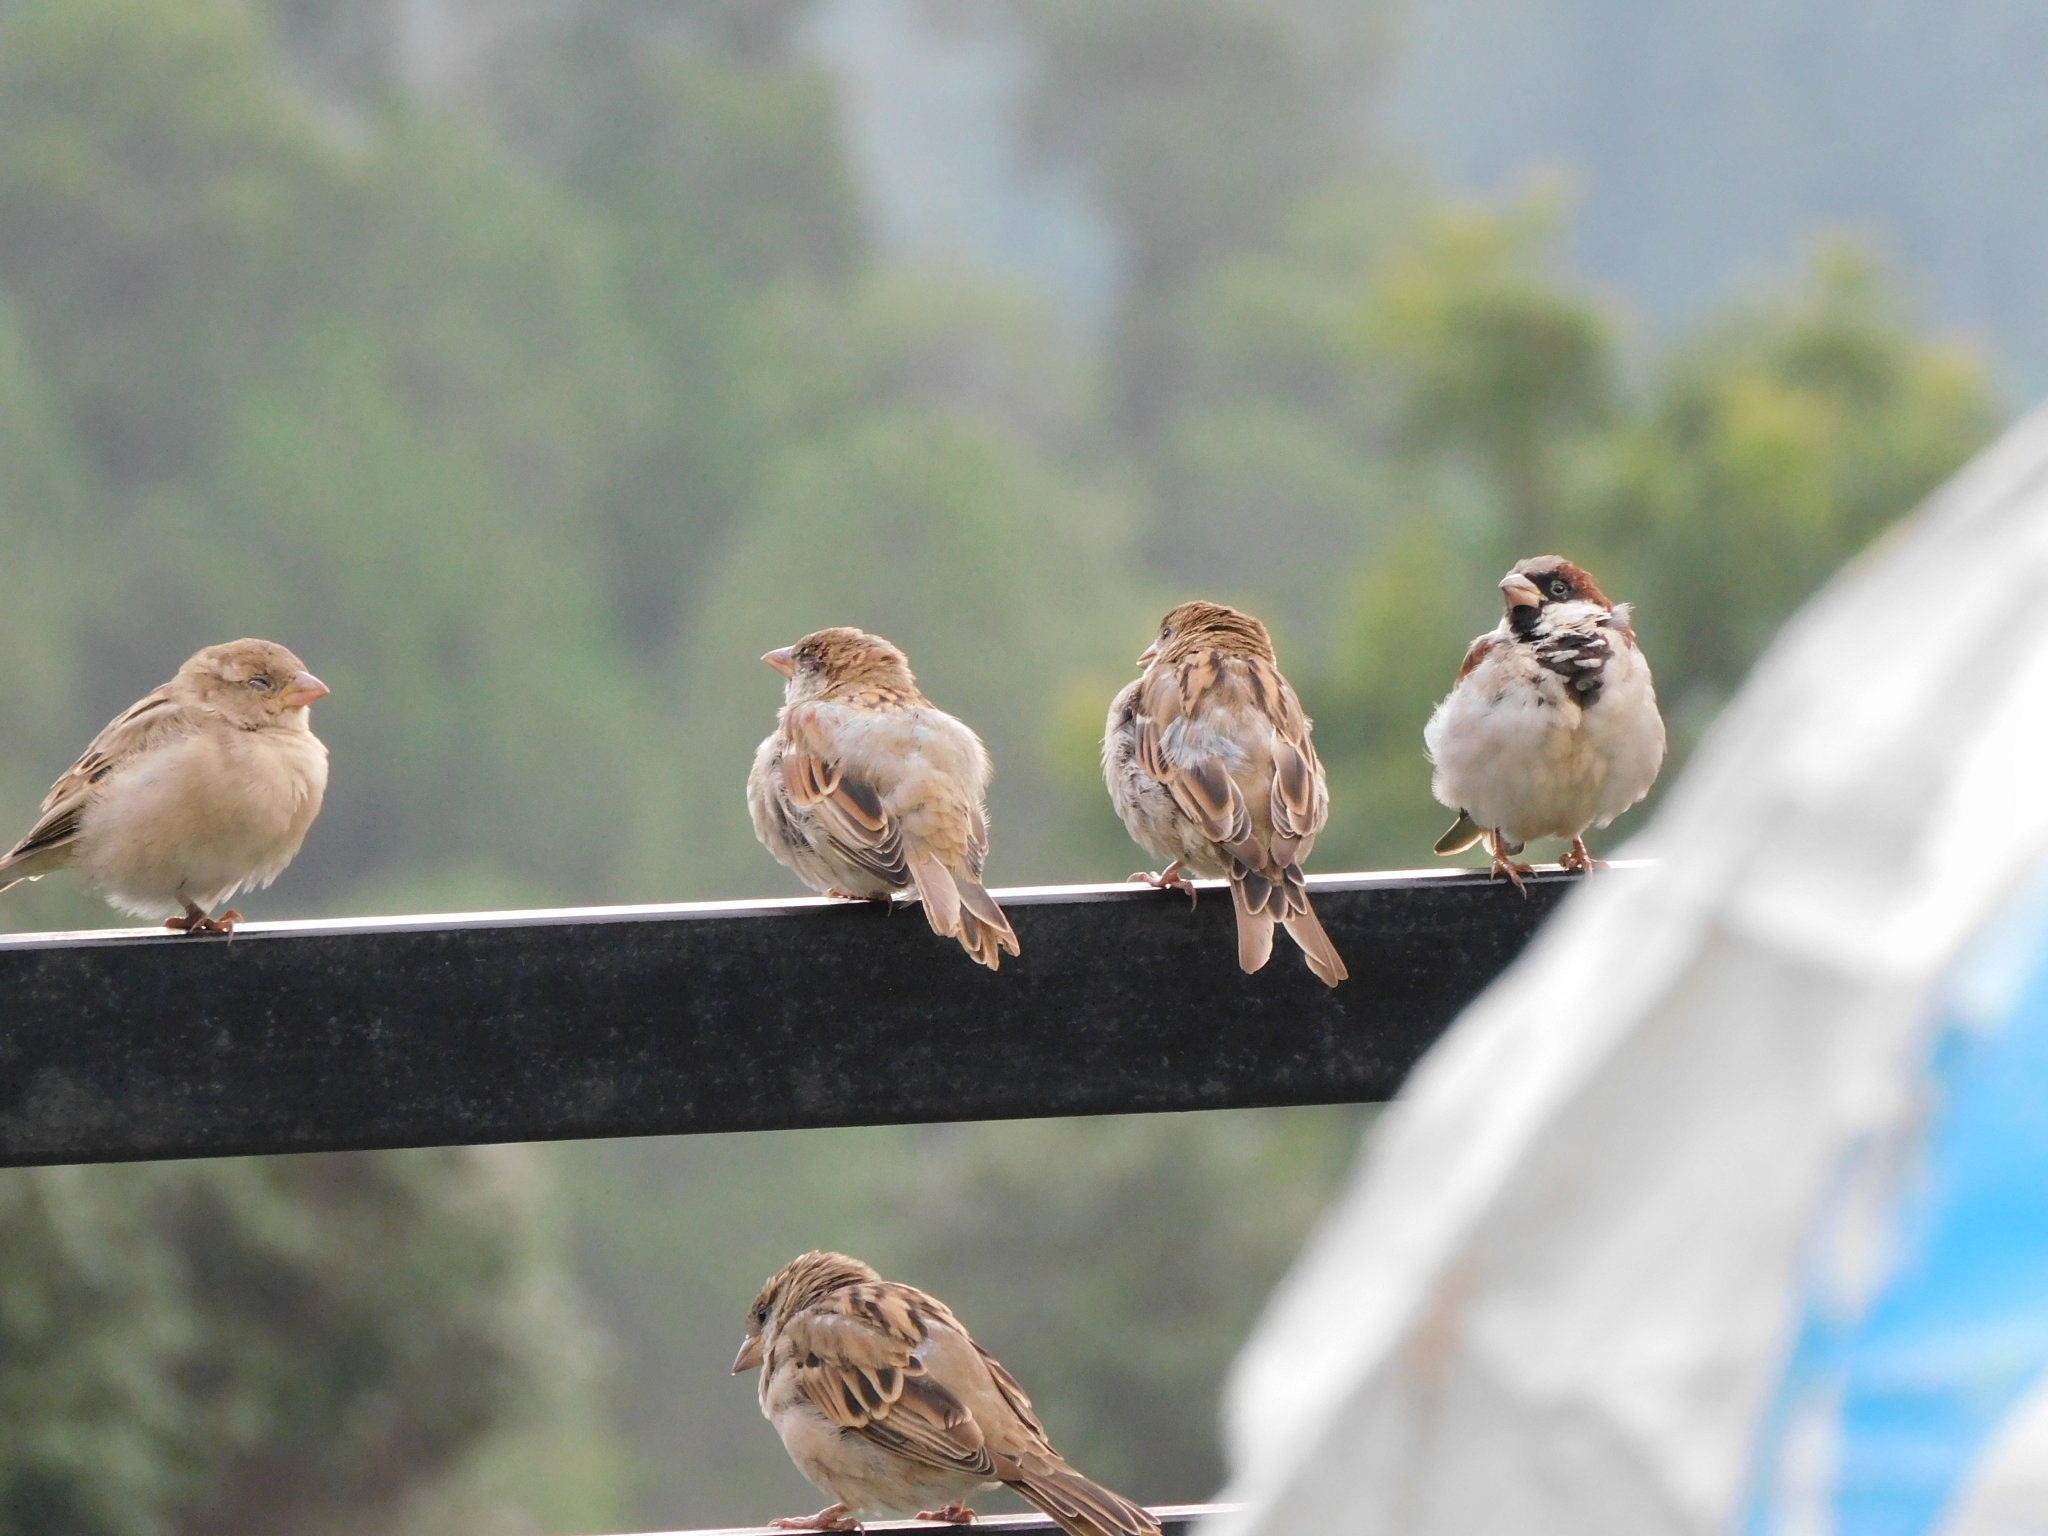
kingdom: Animalia
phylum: Chordata
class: Aves
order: Passeriformes
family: Passeridae
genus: Passer
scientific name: Passer domesticus
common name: House sparrow
